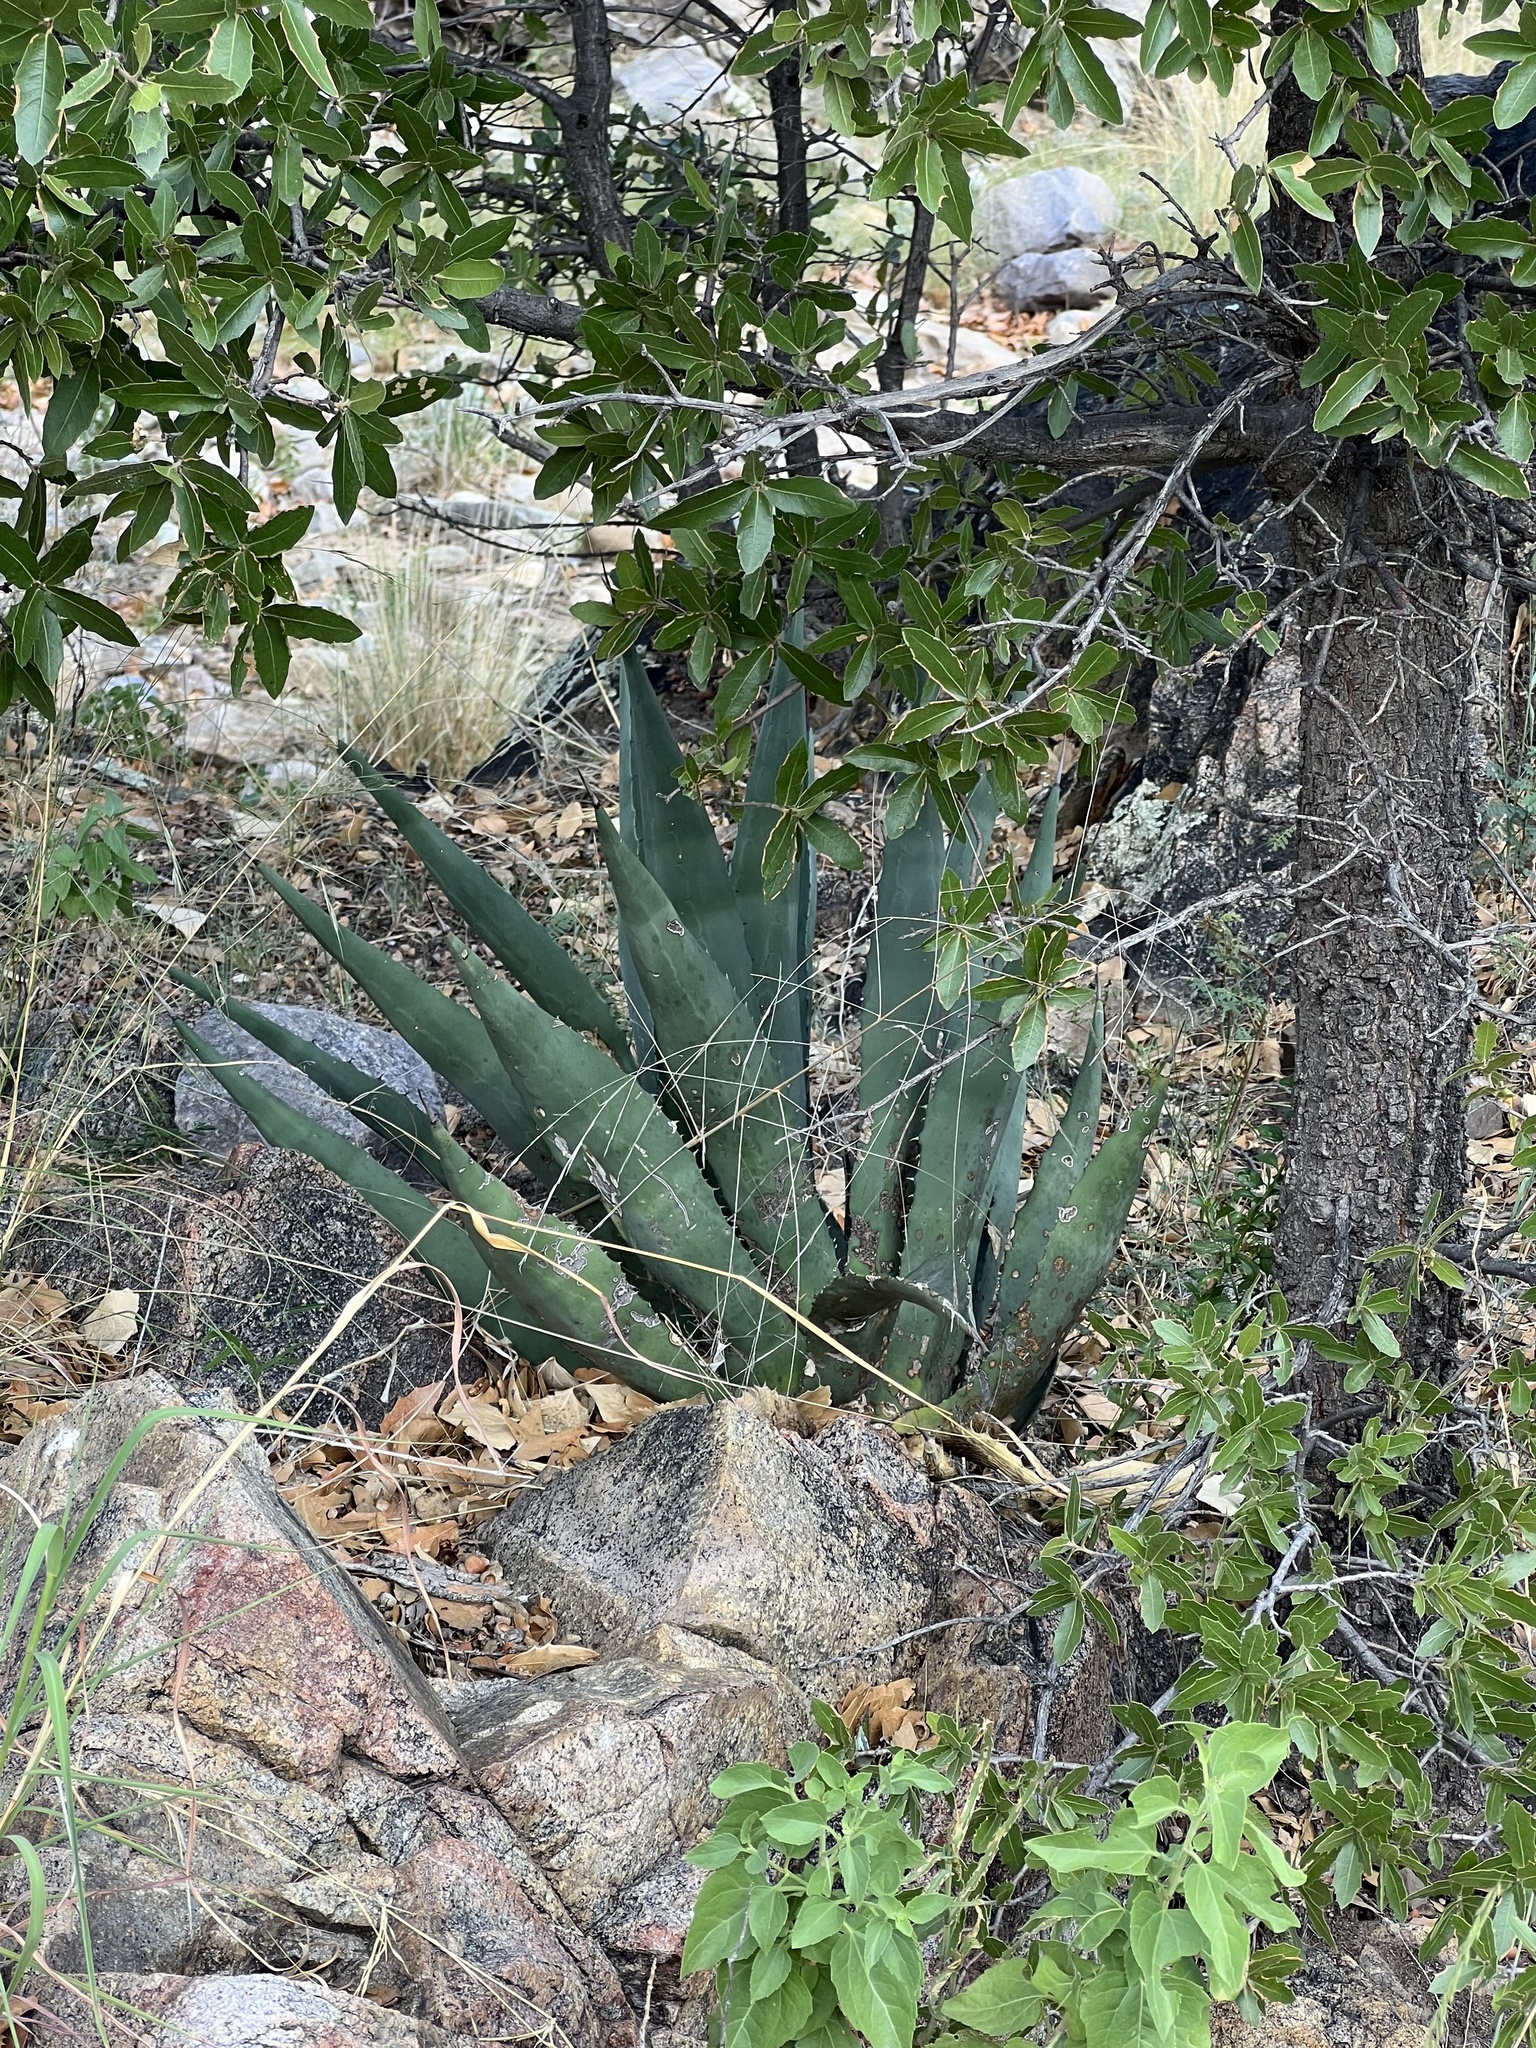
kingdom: Plantae
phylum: Tracheophyta
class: Liliopsida
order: Asparagales
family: Asparagaceae
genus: Agave
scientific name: Agave palmeri
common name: Palmer agave
